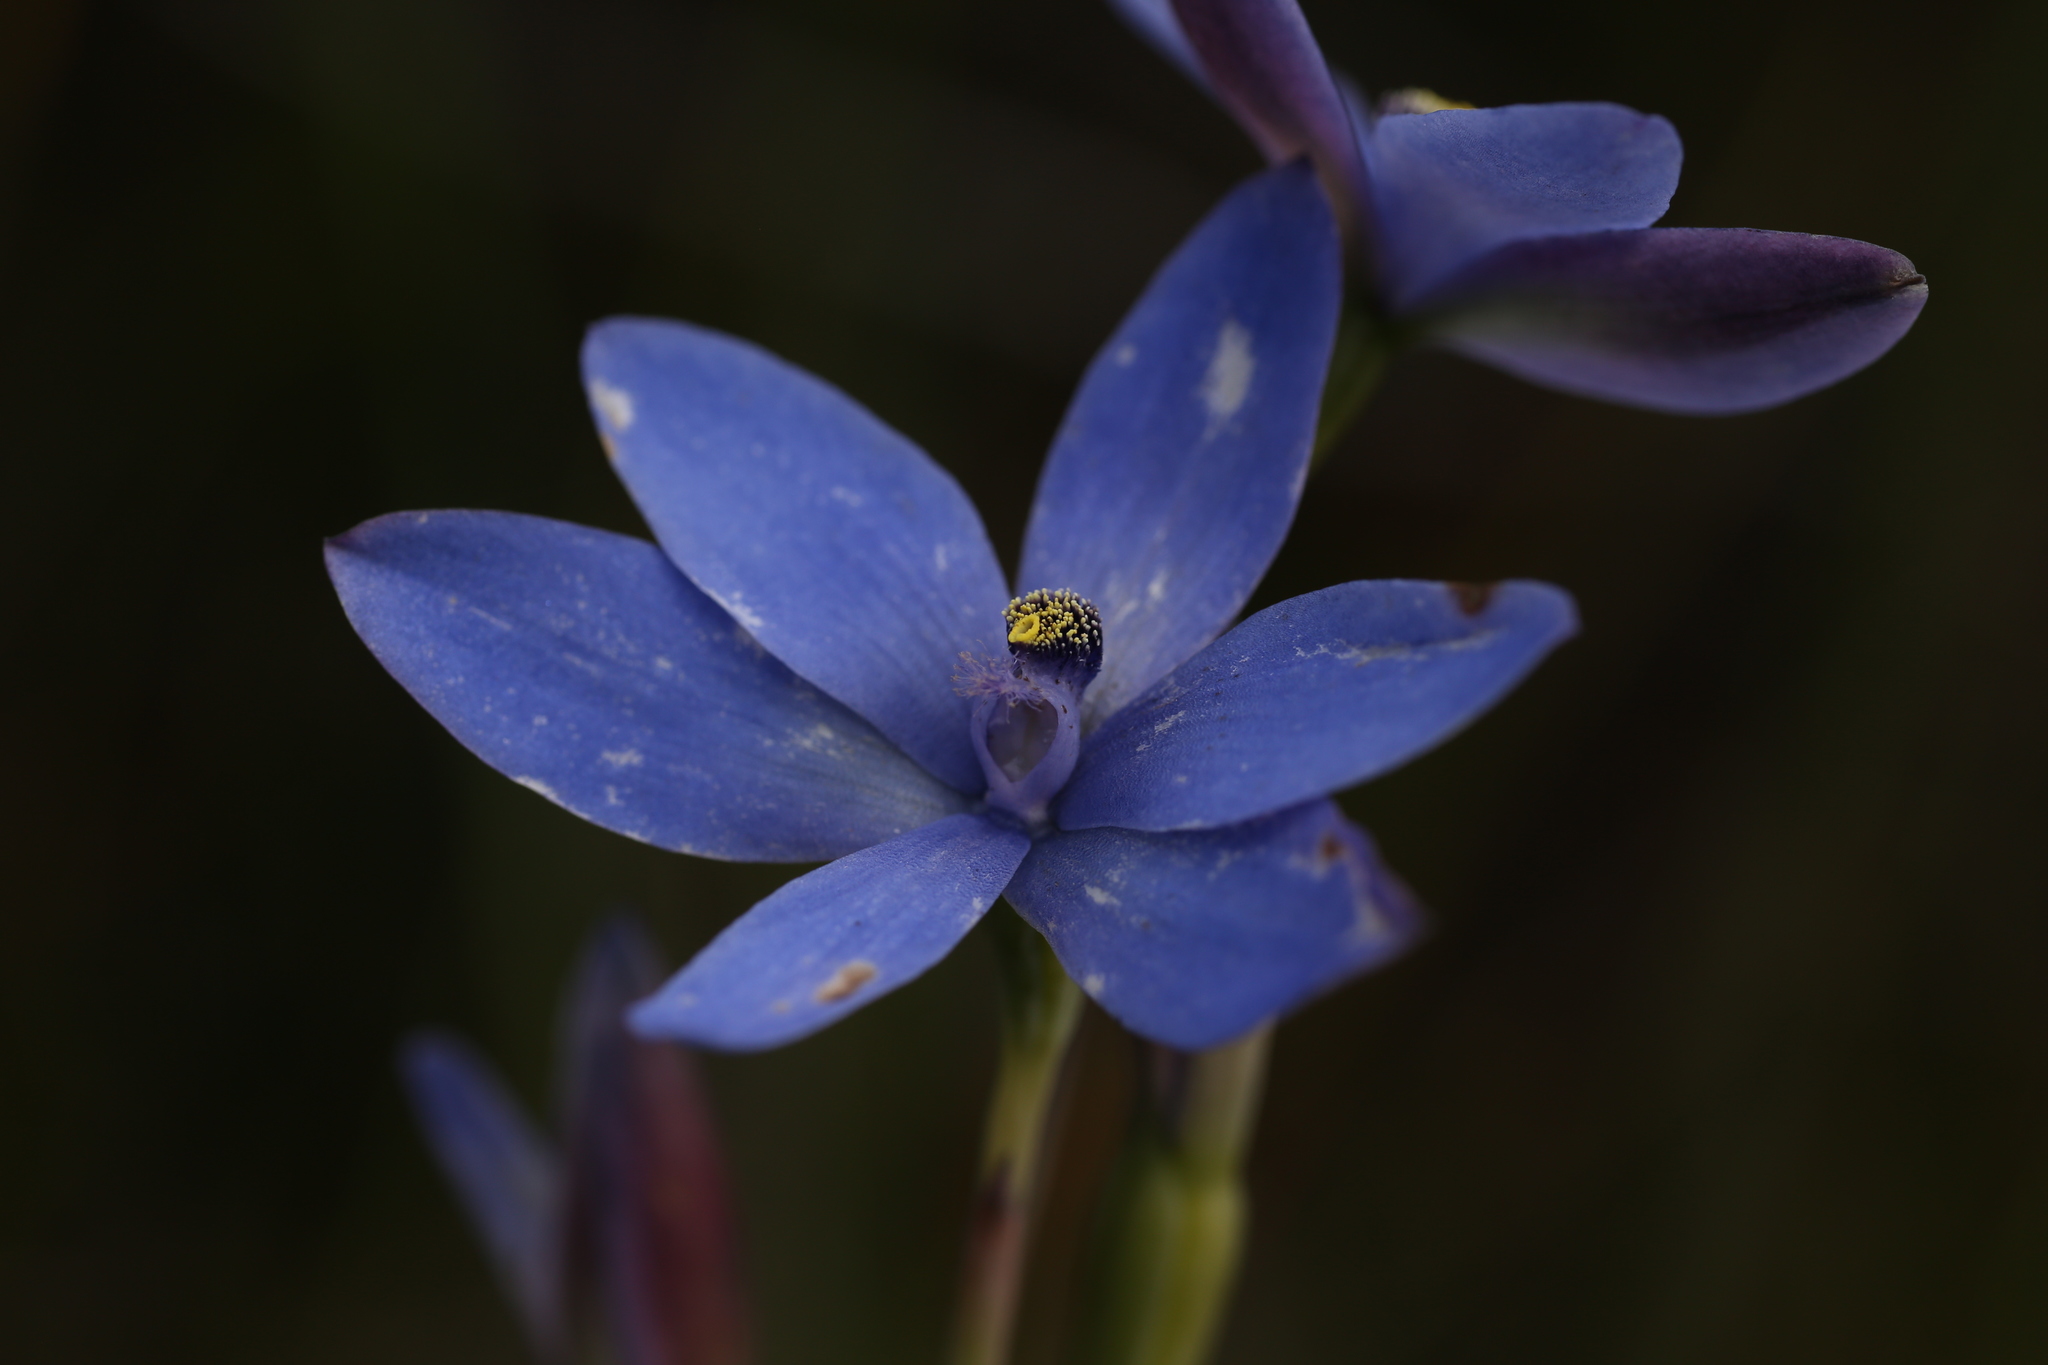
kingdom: Plantae
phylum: Tracheophyta
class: Liliopsida
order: Asparagales
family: Orchidaceae
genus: Thelymitra
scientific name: Thelymitra crinita
